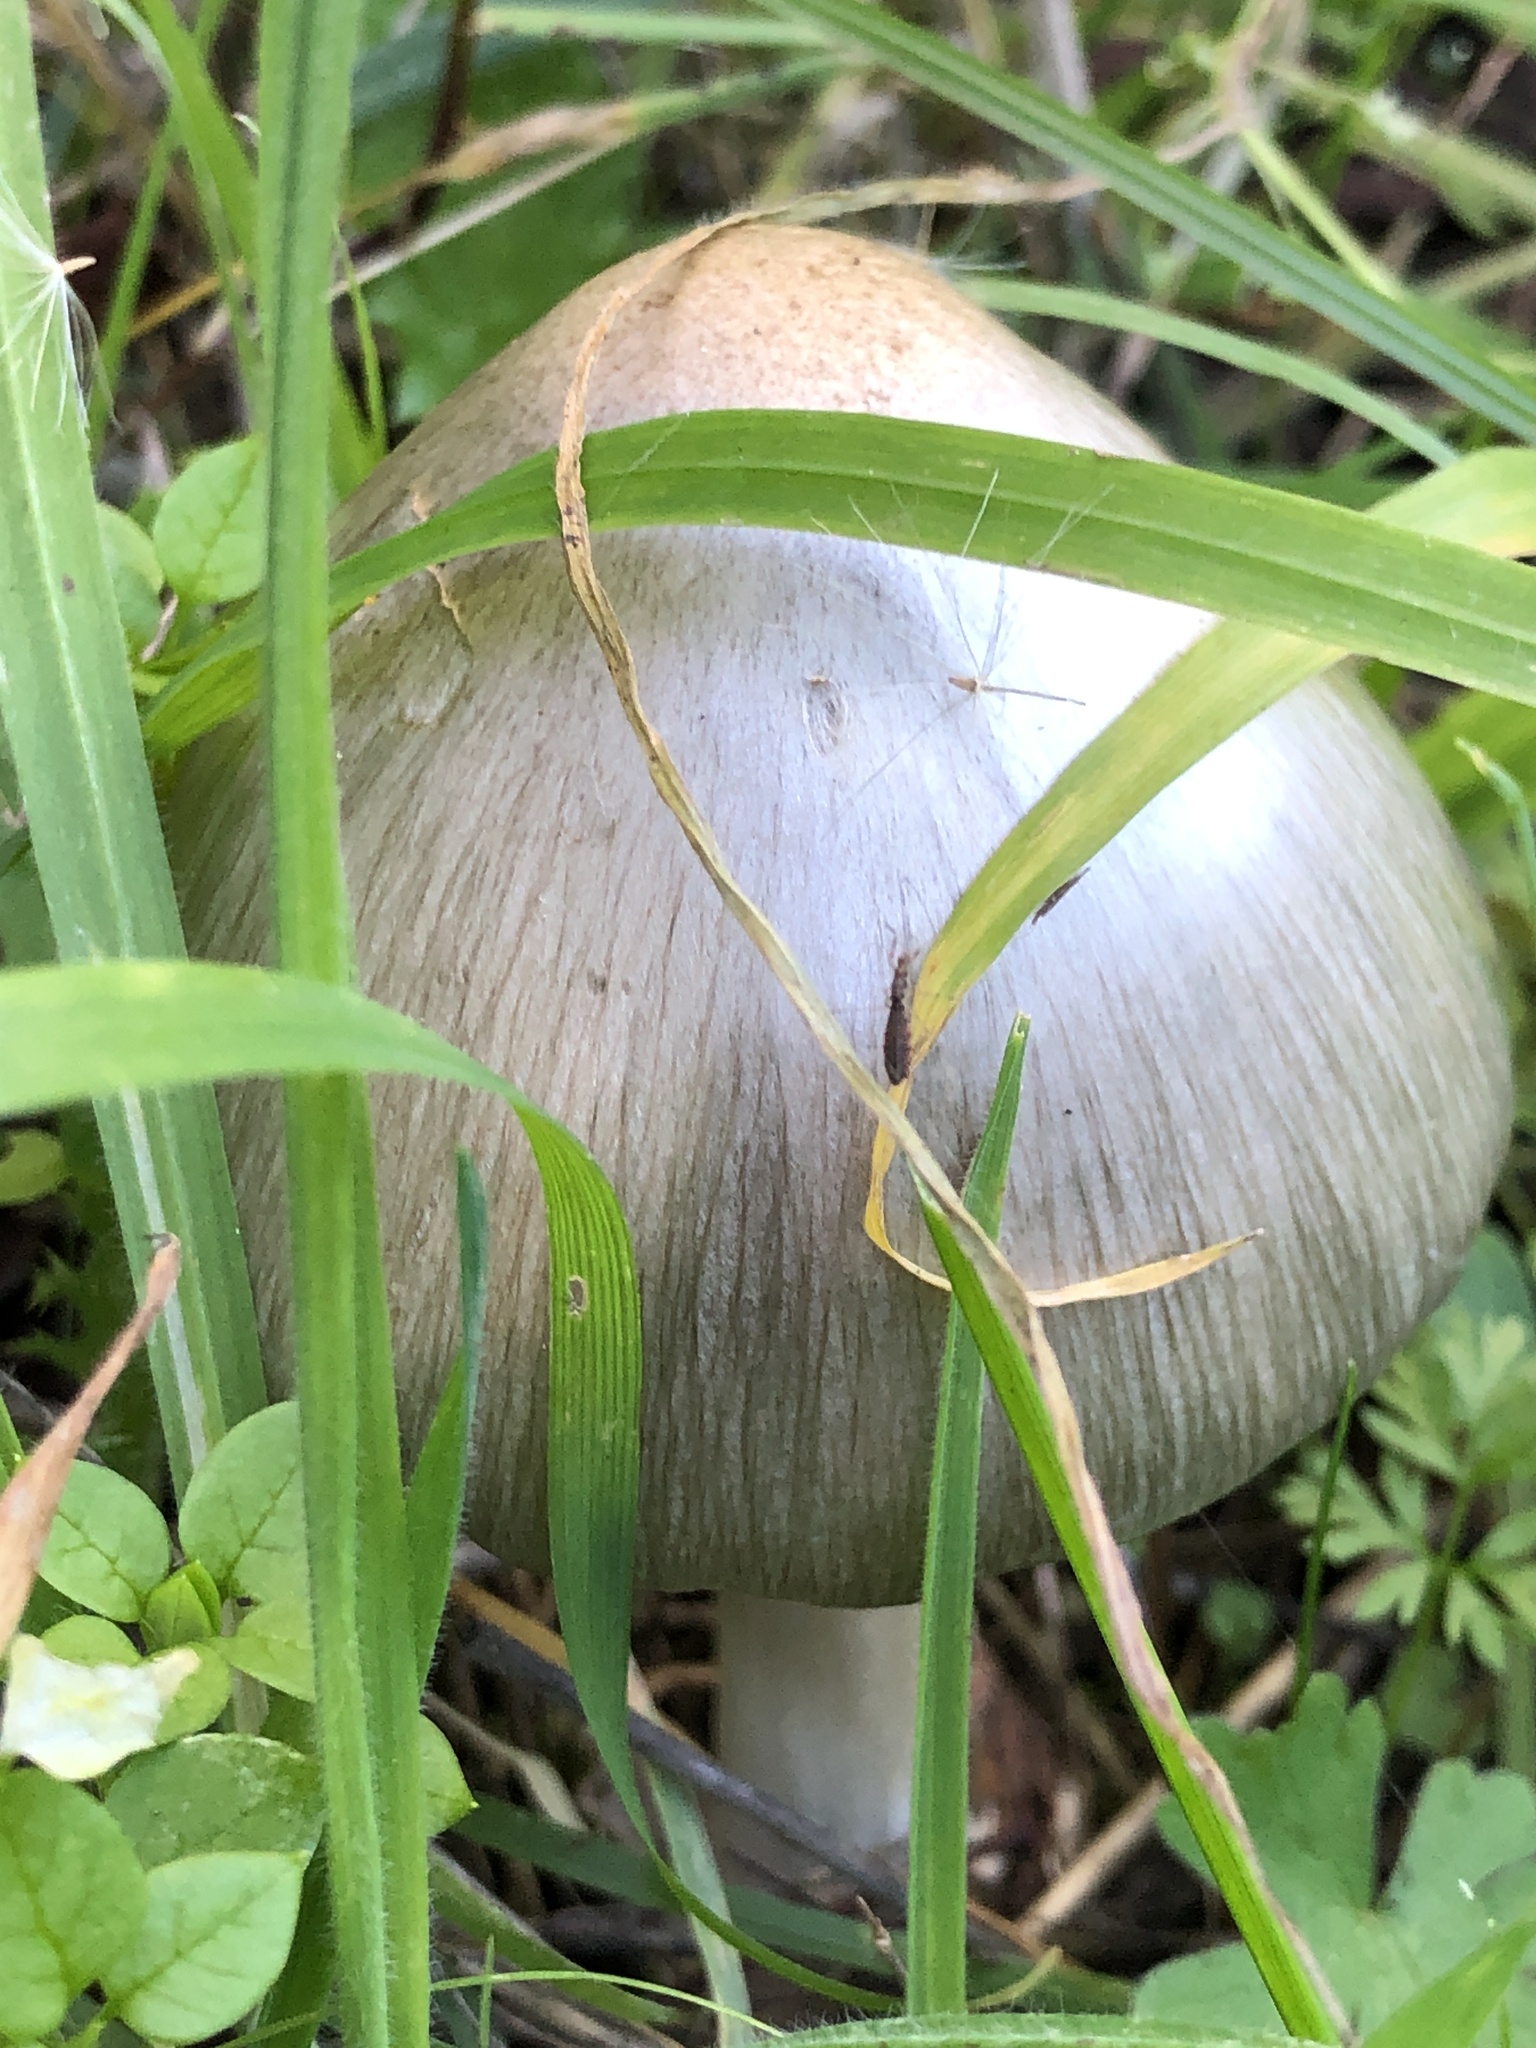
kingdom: Fungi
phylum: Basidiomycota
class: Agaricomycetes
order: Agaricales
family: Pluteaceae
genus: Volvopluteus
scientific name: Volvopluteus gloiocephalus
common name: Stubble rosegill
